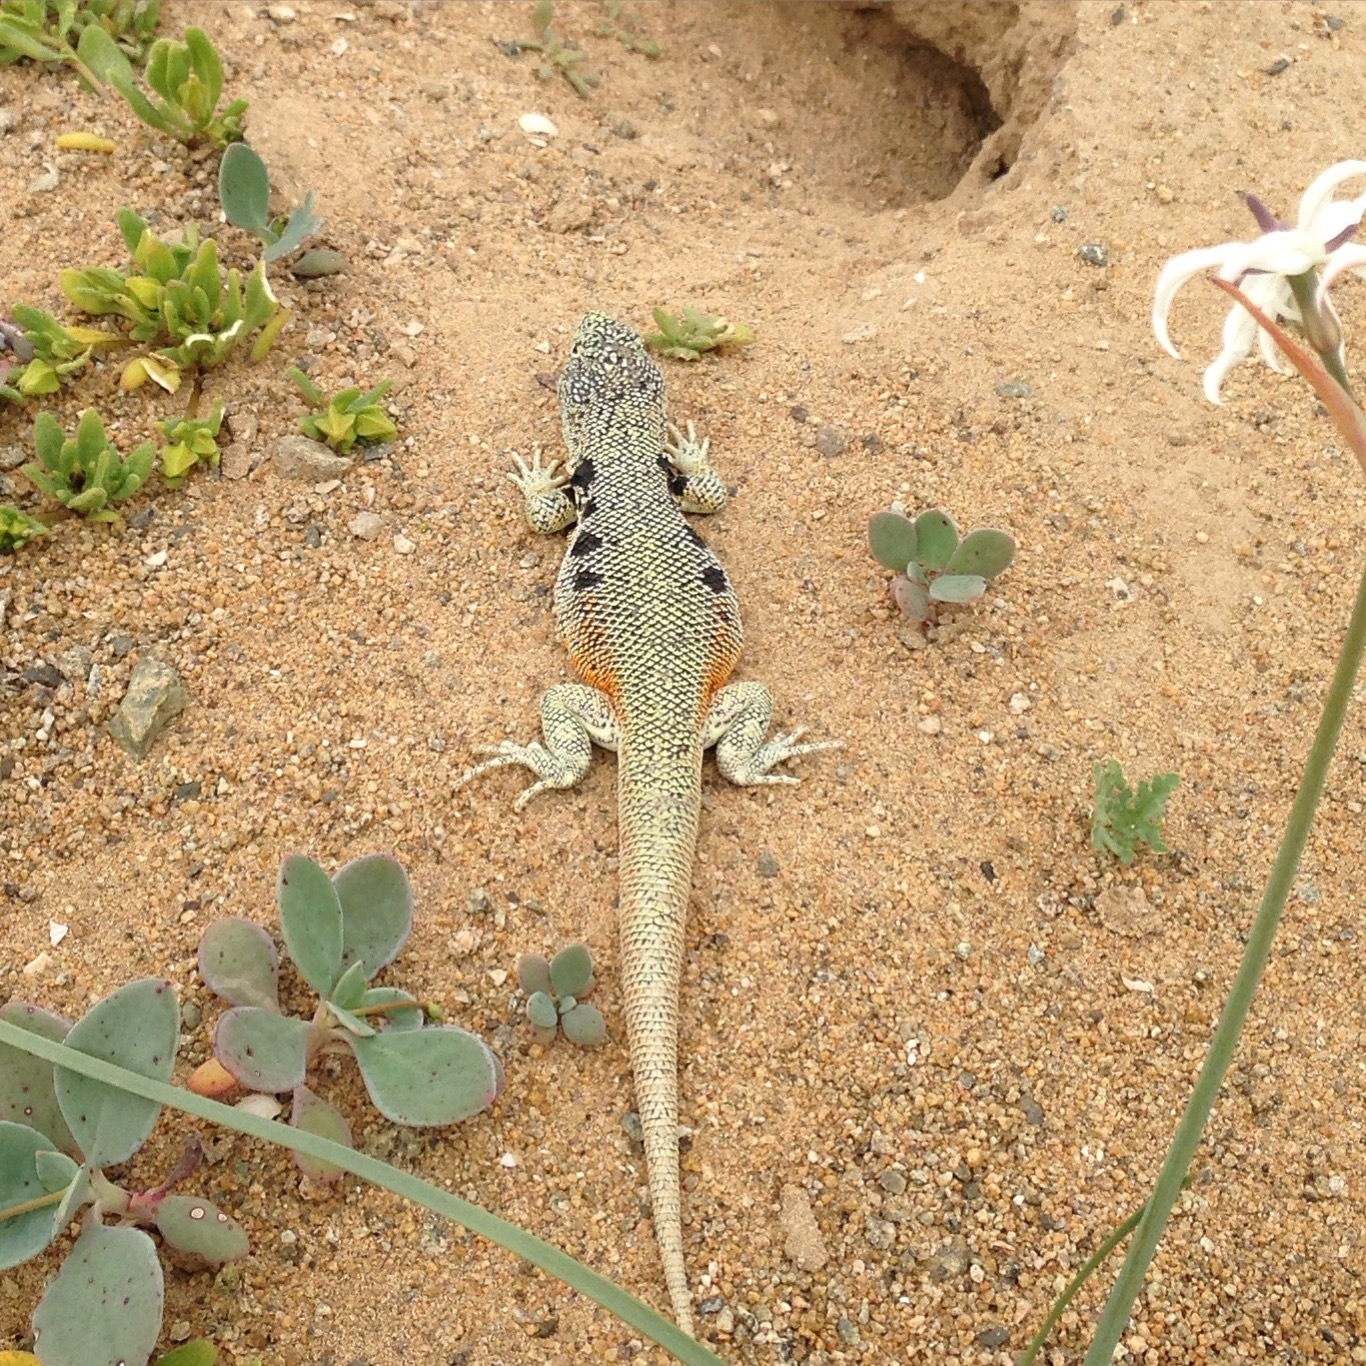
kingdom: Animalia
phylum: Chordata
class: Squamata
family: Liolaemidae
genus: Liolaemus
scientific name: Liolaemus nigromaculatus
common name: Many-spotted tree iguana
